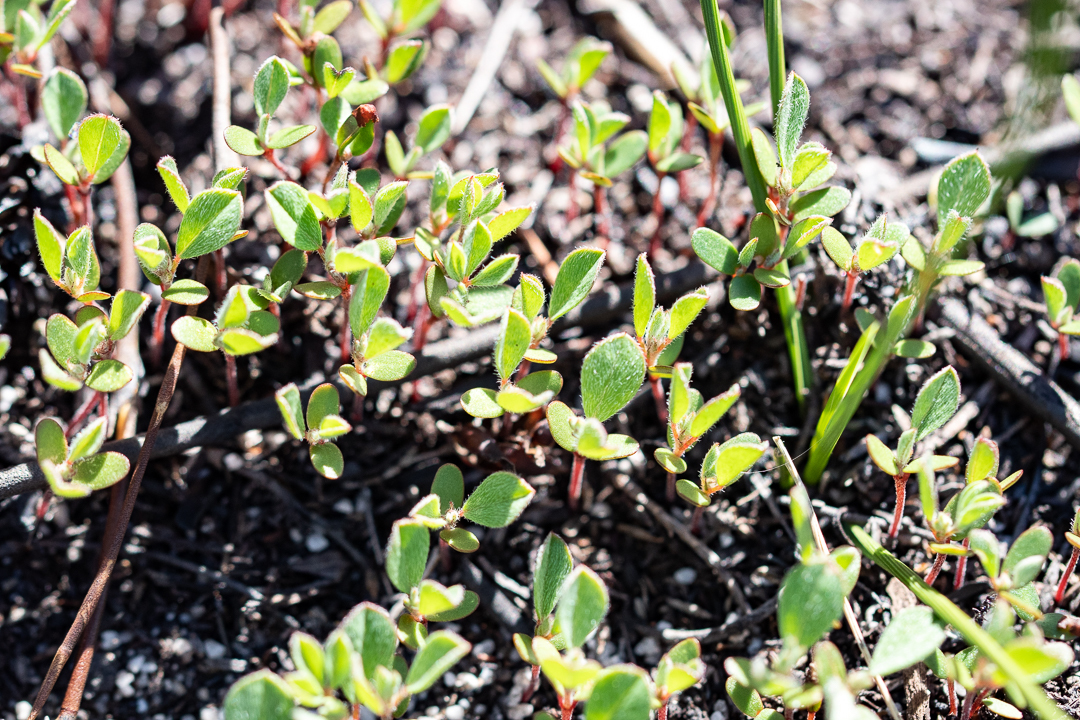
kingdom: Plantae
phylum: Tracheophyta
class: Magnoliopsida
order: Fabales
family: Fabaceae
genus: Indigofera
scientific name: Indigofera glomerata
